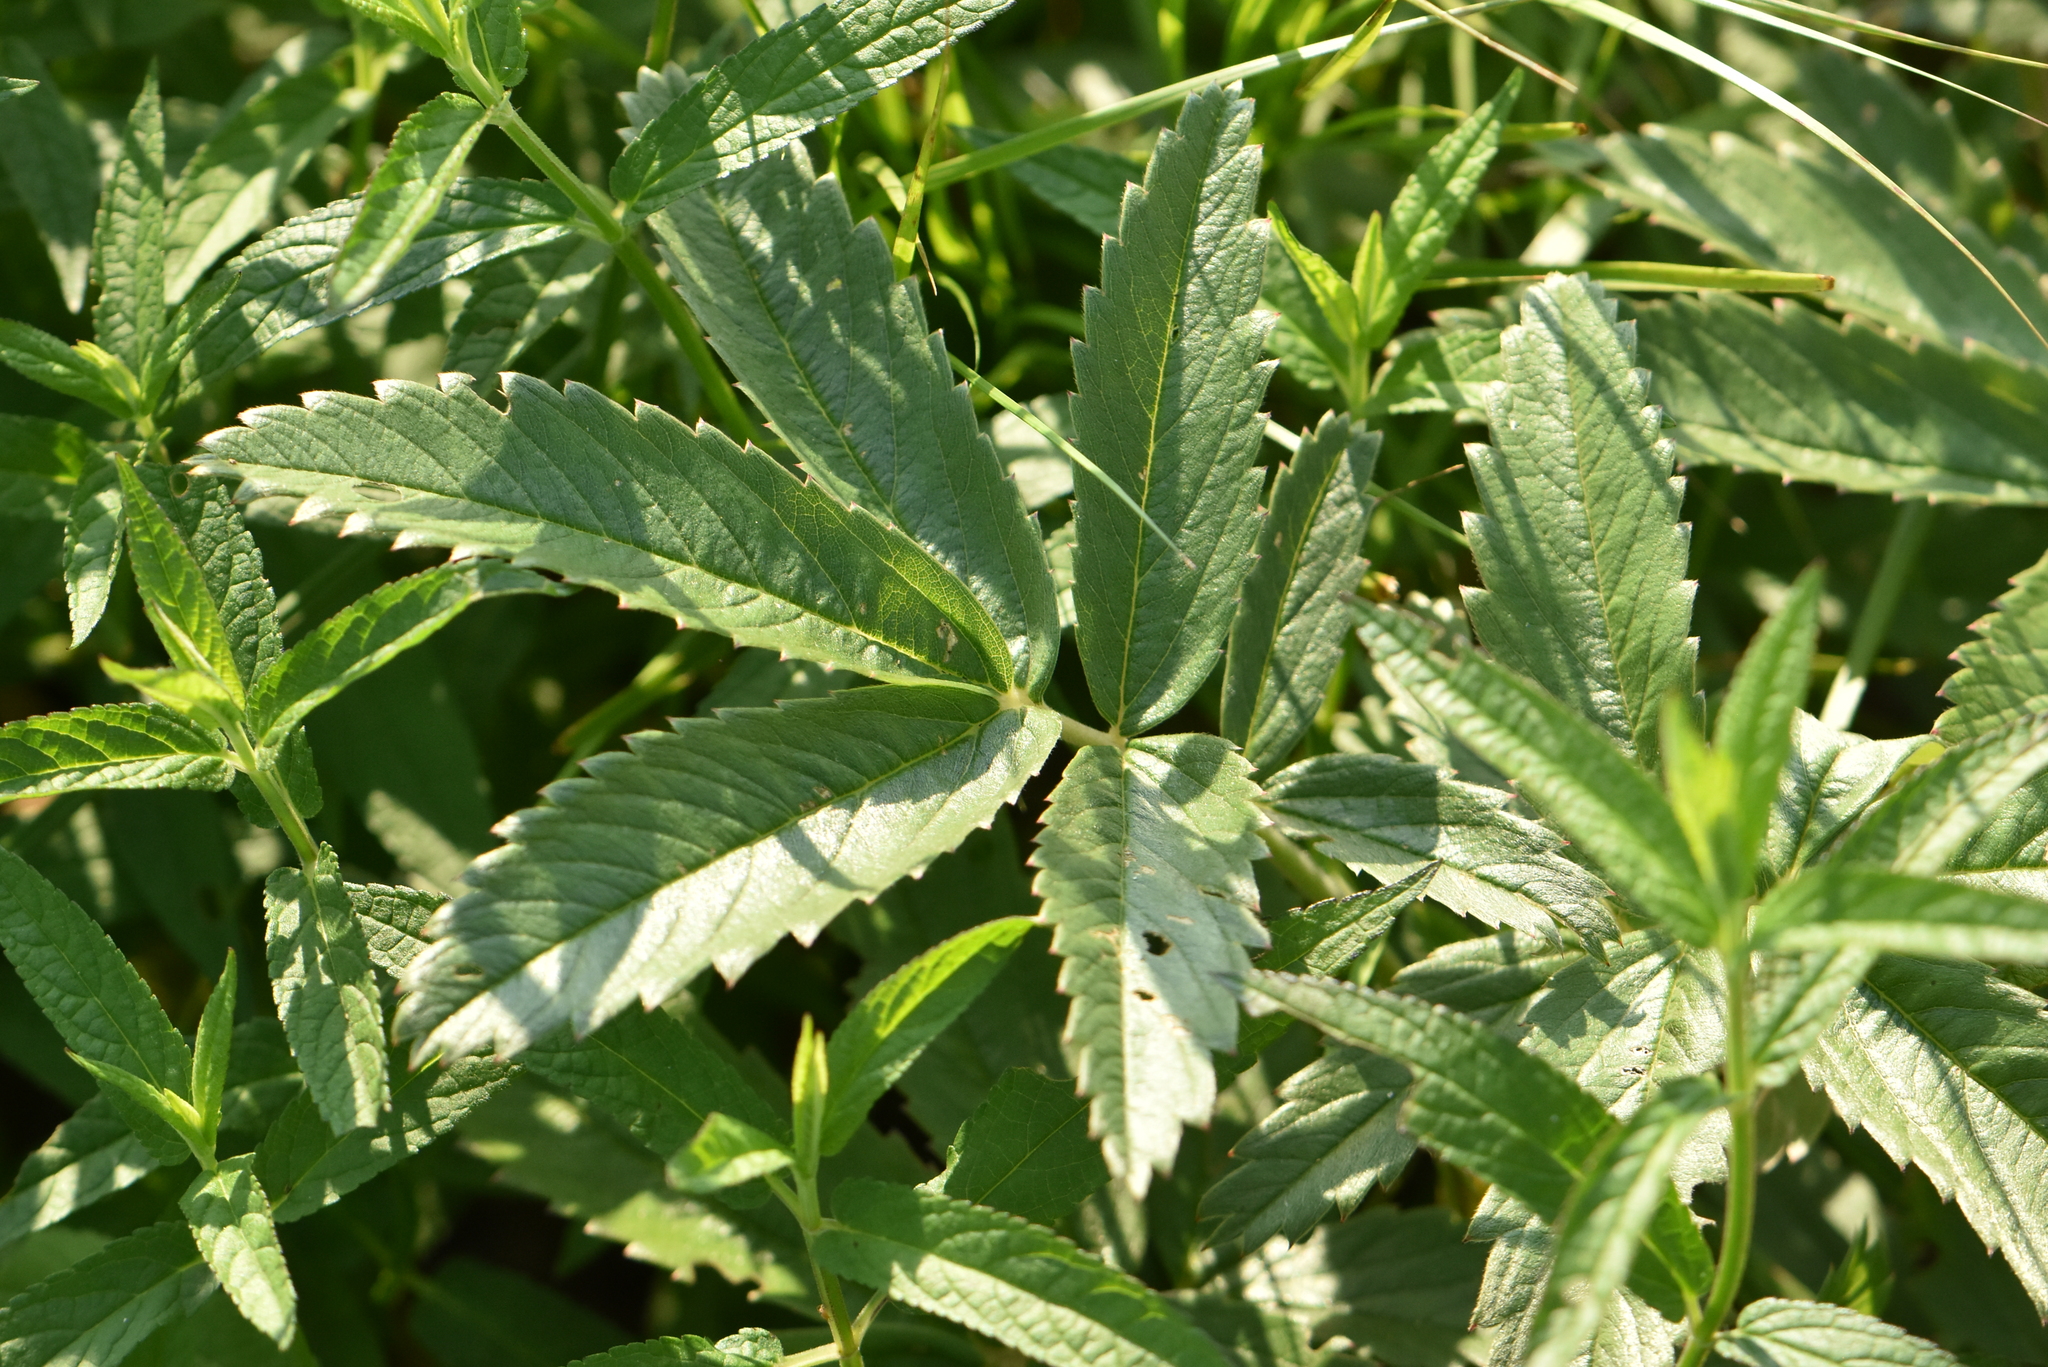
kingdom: Plantae
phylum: Tracheophyta
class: Magnoliopsida
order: Rosales
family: Rosaceae
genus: Comarum
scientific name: Comarum palustre
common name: Marsh cinquefoil
